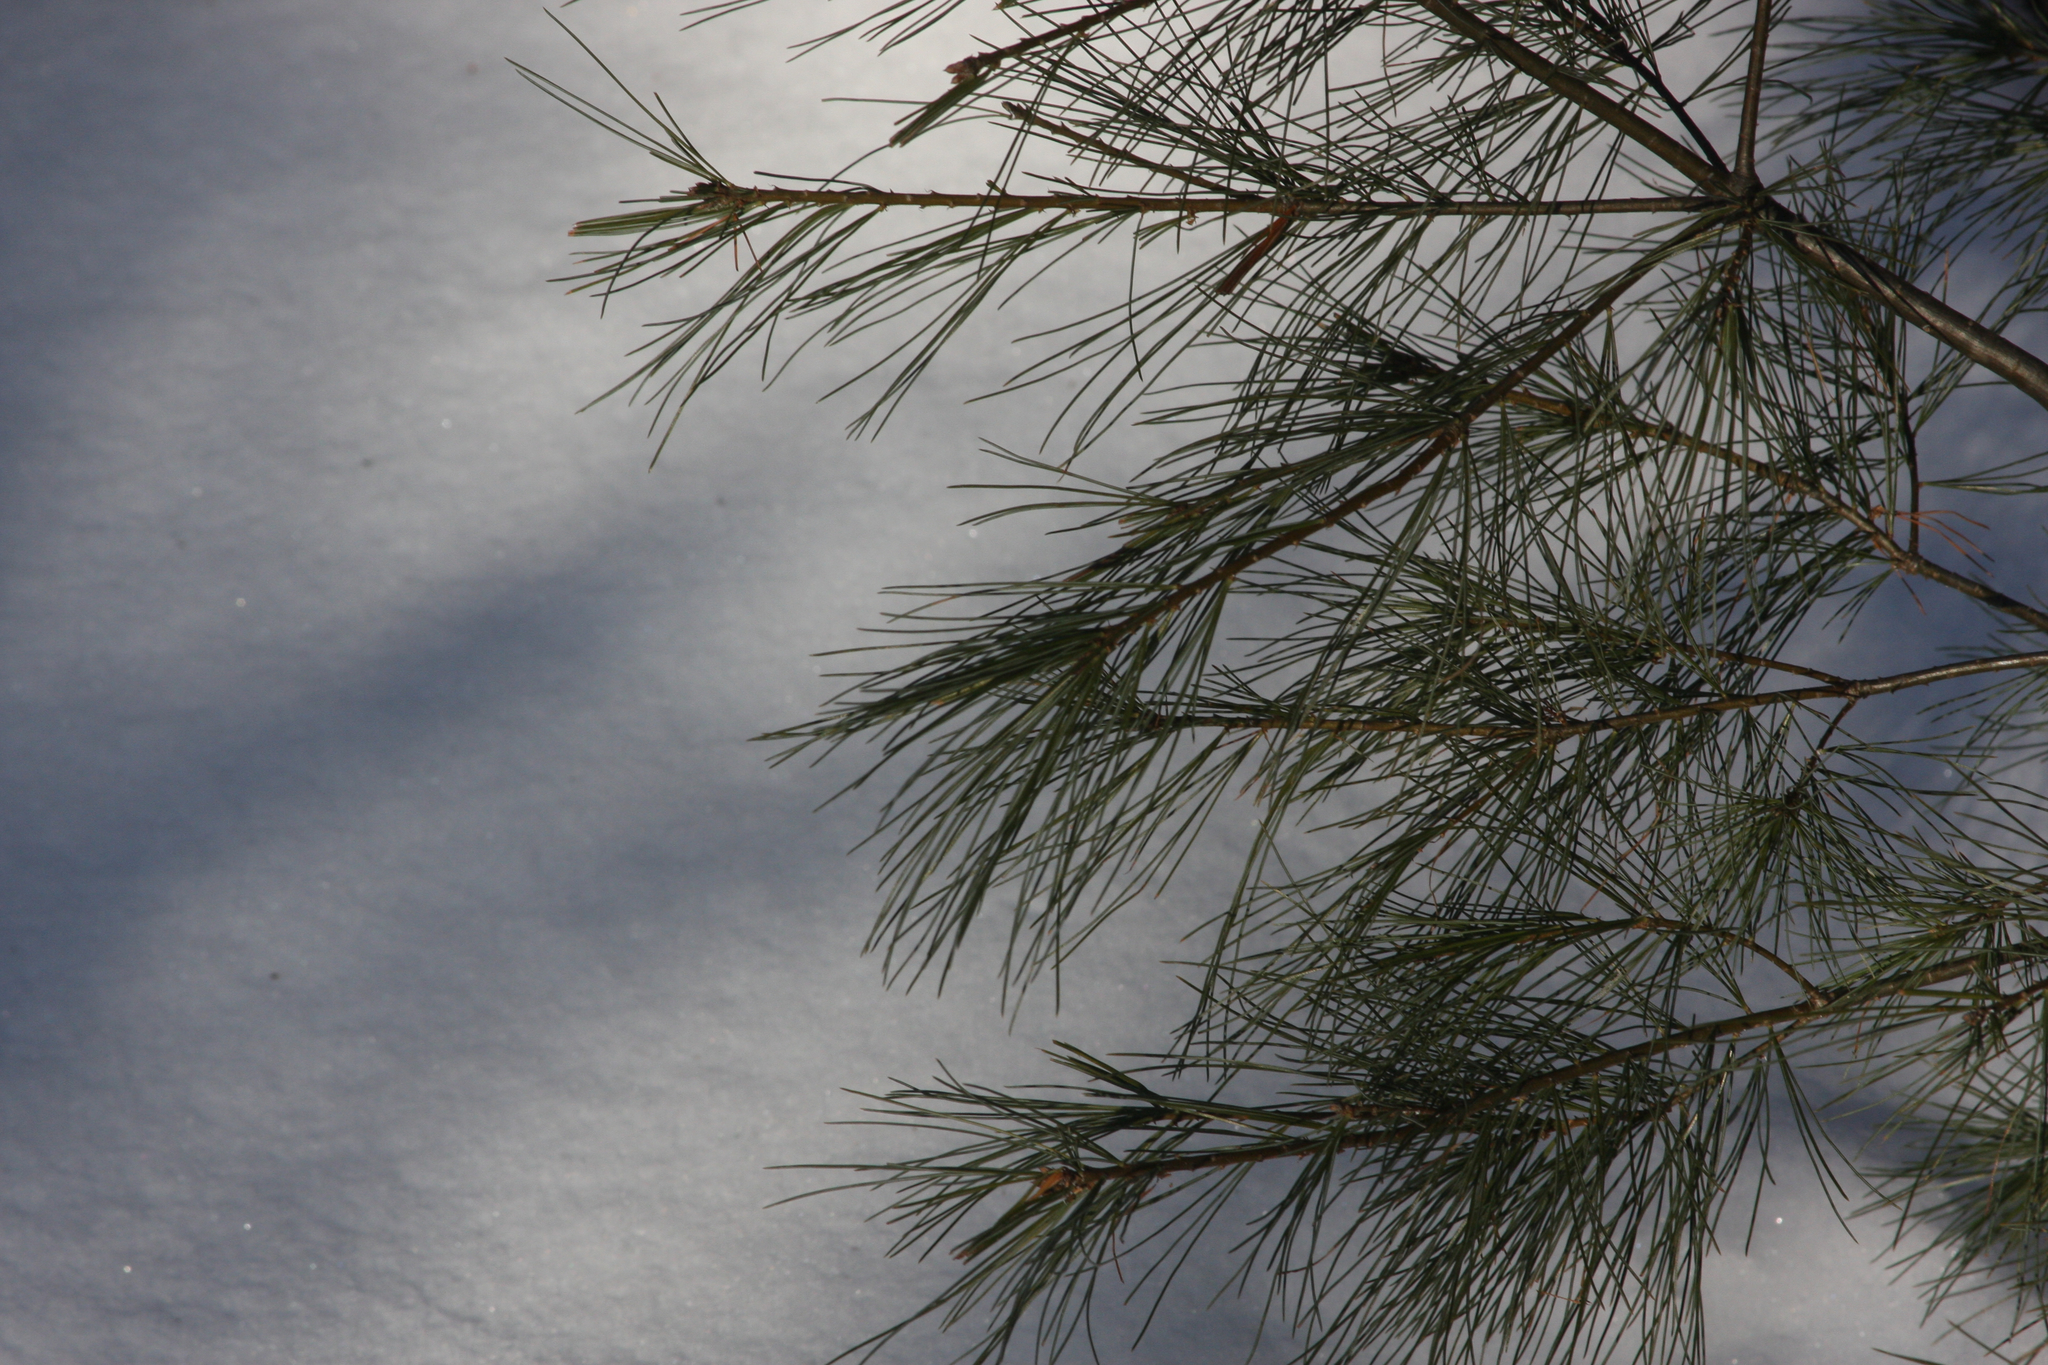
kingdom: Plantae
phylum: Tracheophyta
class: Pinopsida
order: Pinales
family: Pinaceae
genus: Pinus
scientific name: Pinus strobus
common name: Weymouth pine
